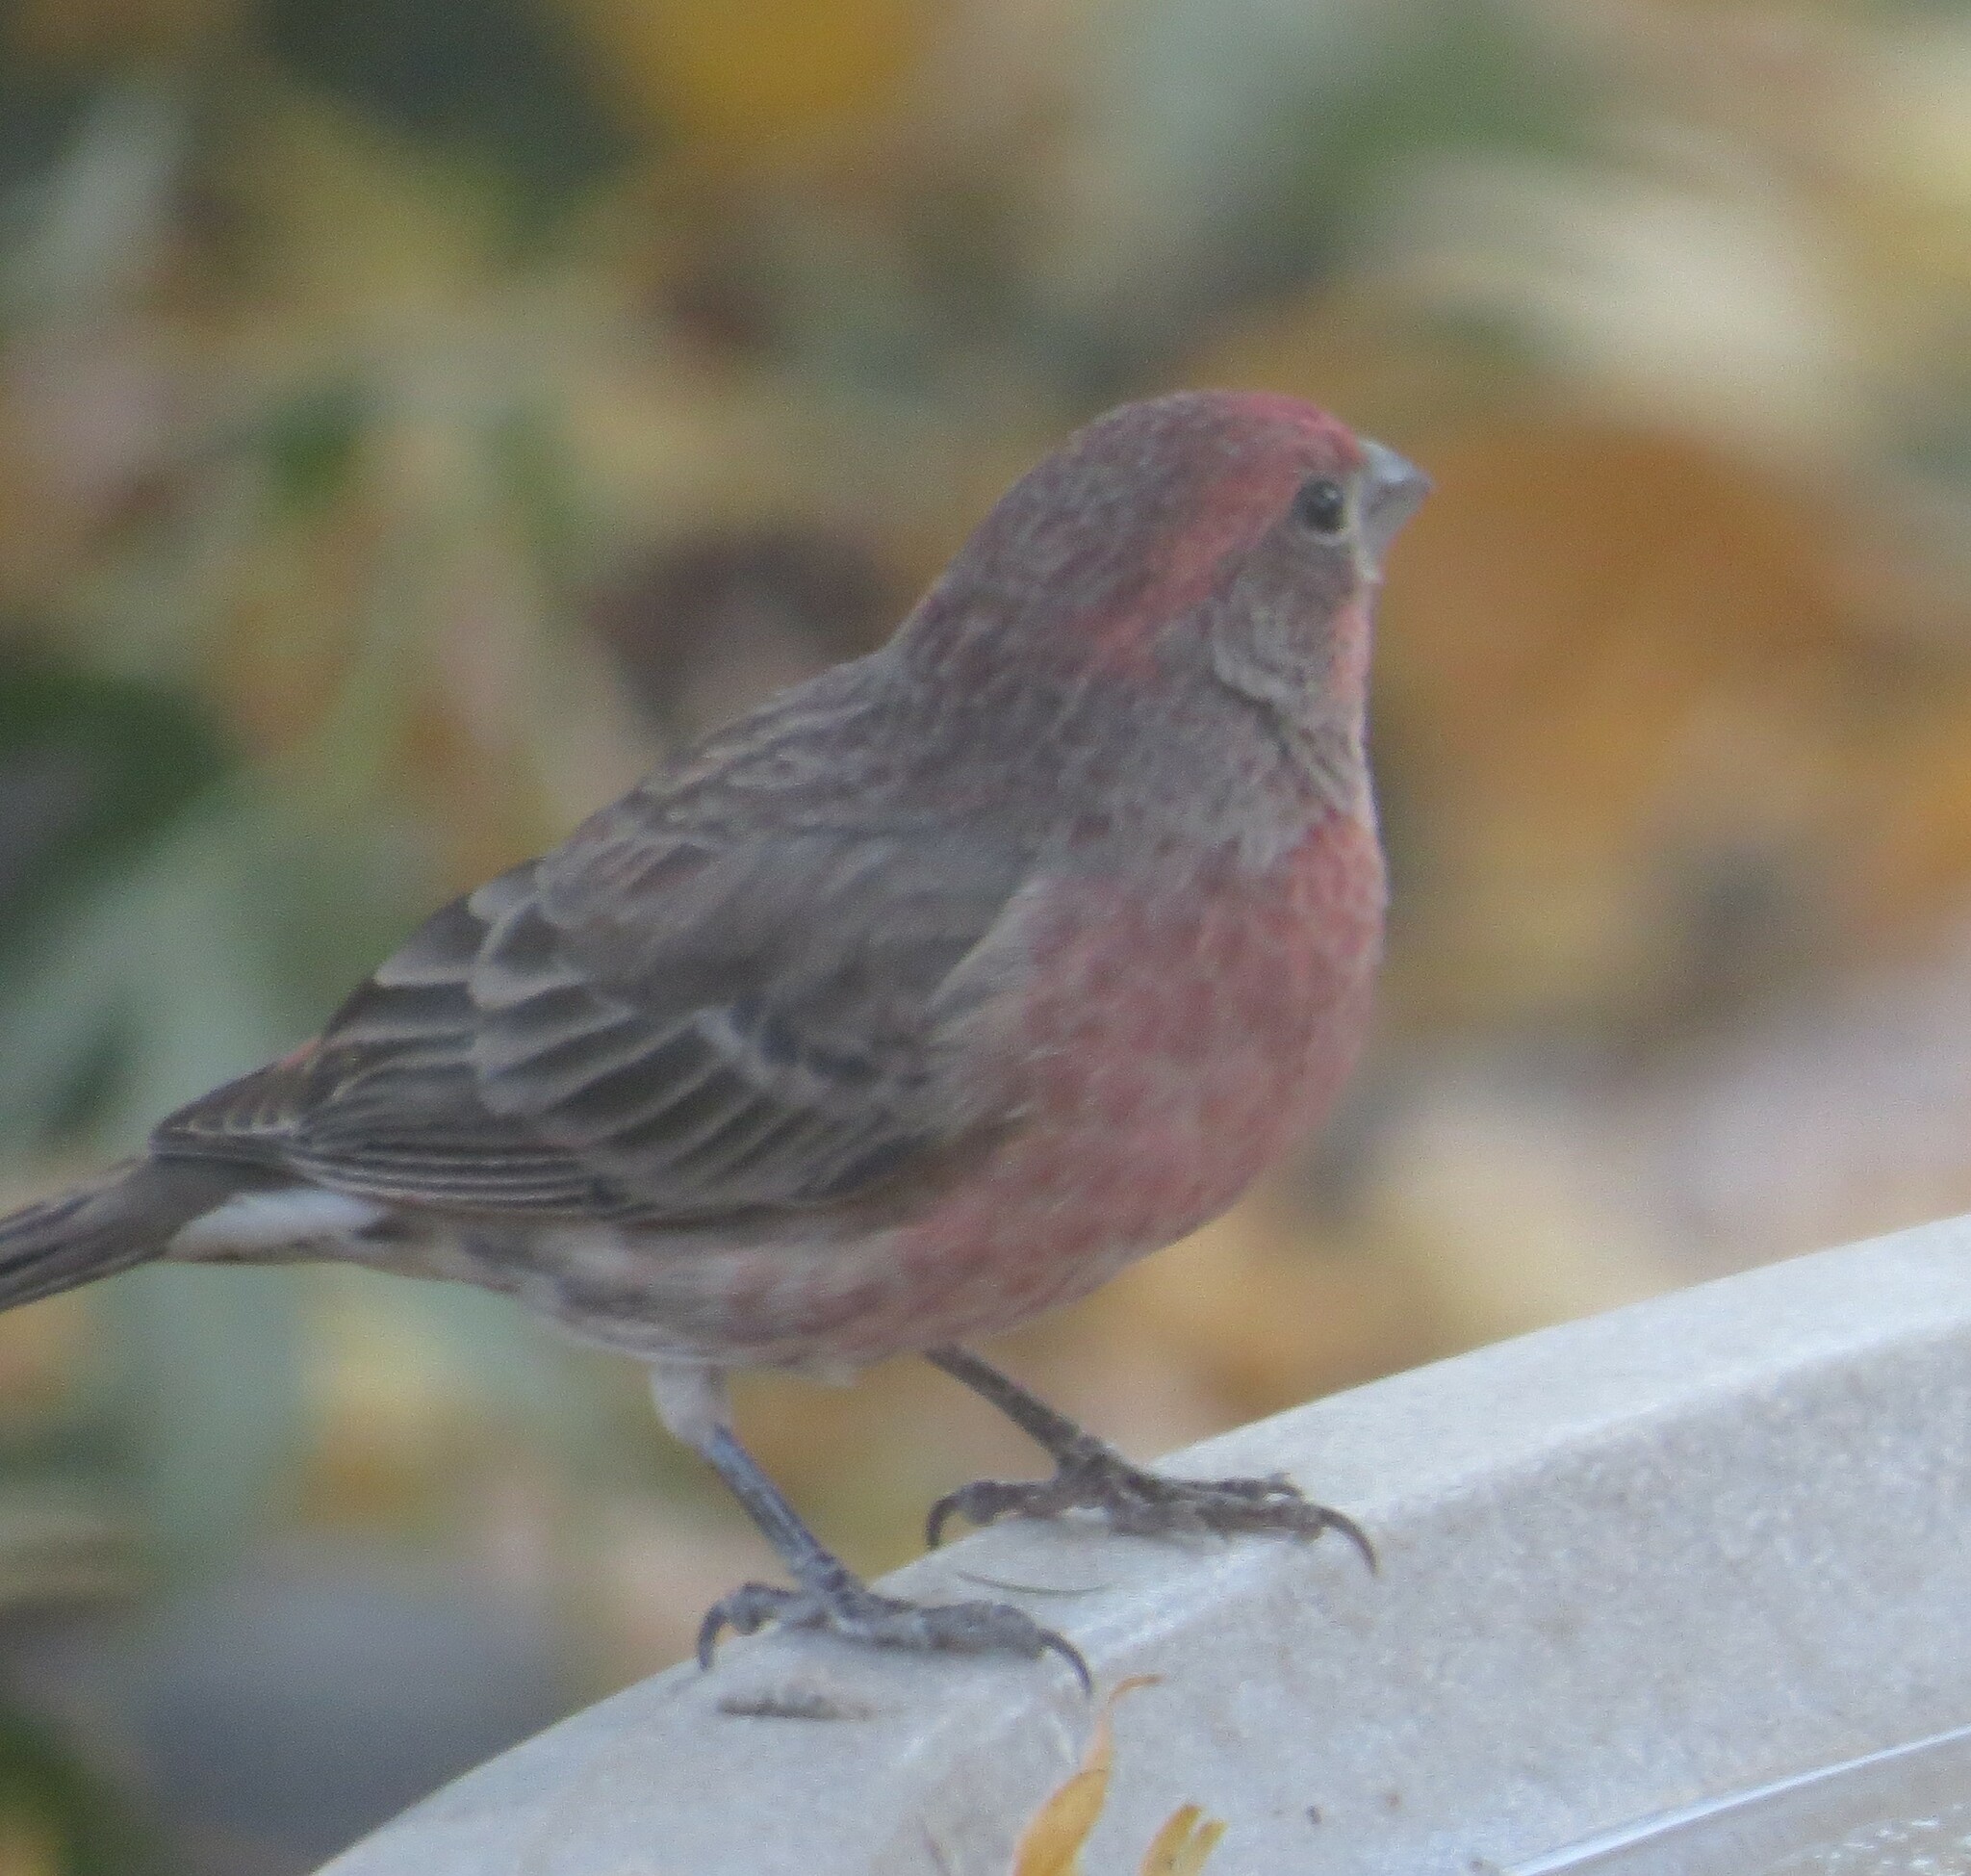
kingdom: Animalia
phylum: Chordata
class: Aves
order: Passeriformes
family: Fringillidae
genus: Haemorhous
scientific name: Haemorhous mexicanus
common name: House finch
